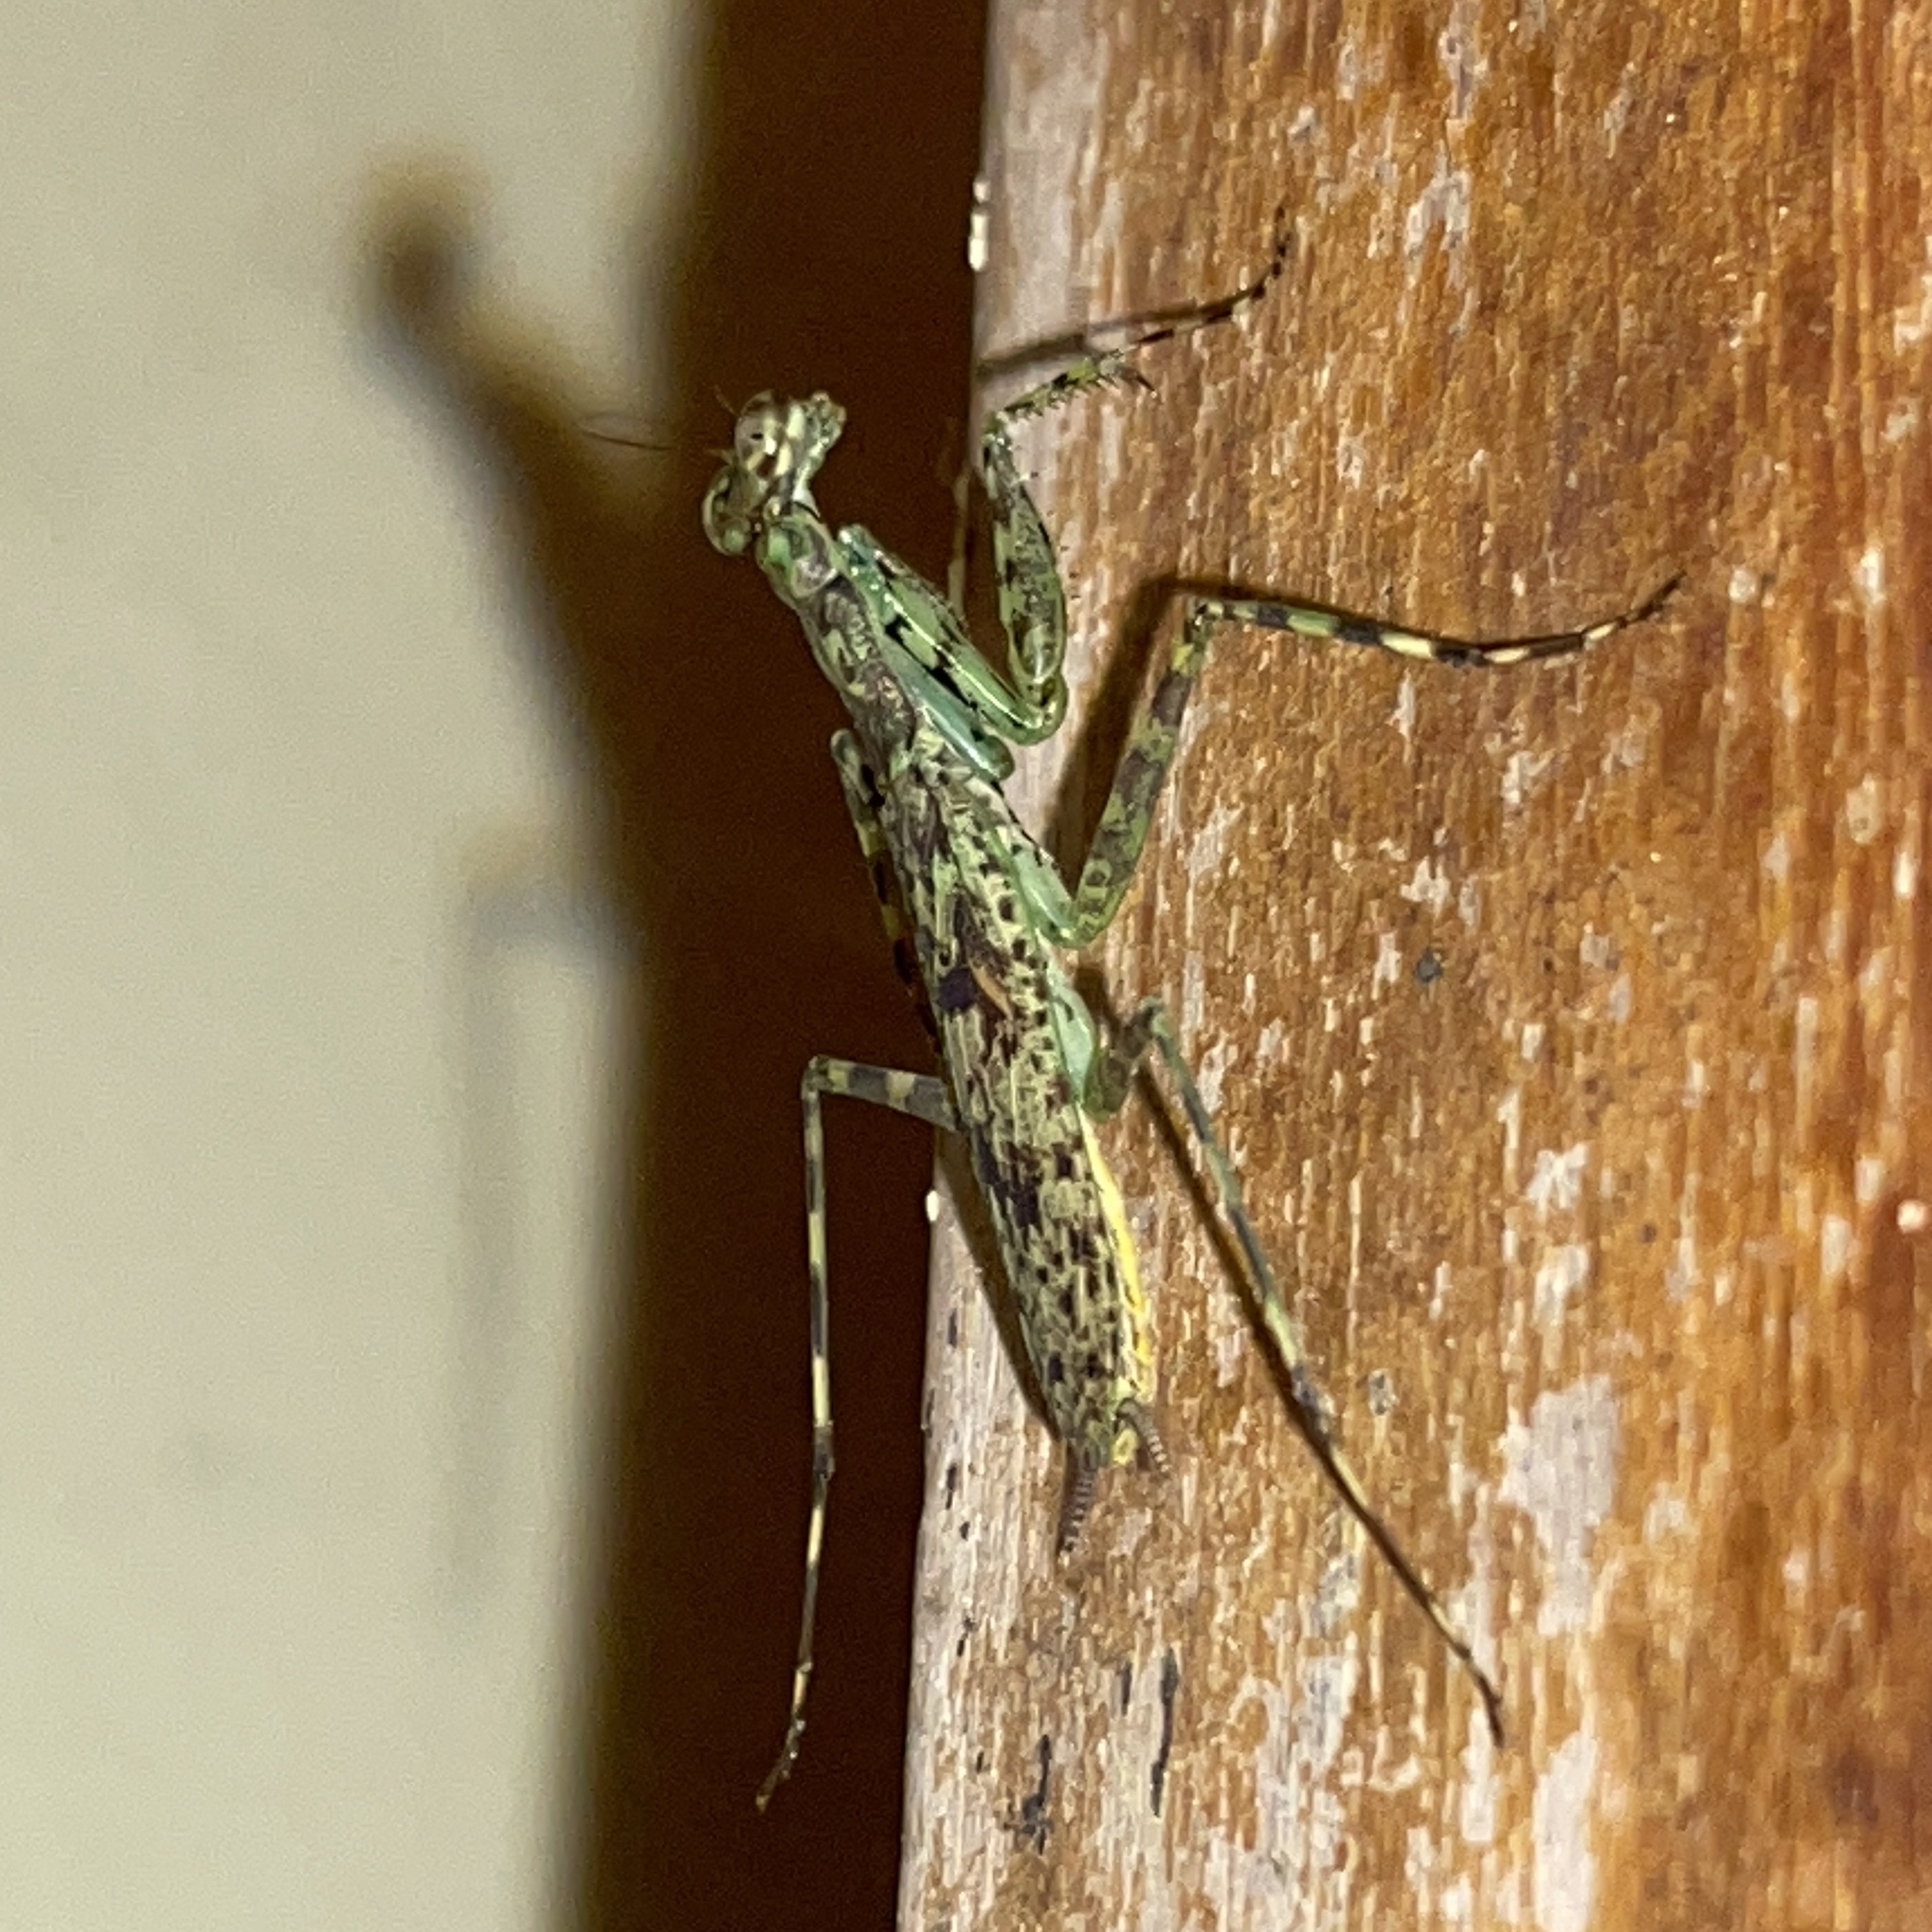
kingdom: Animalia
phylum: Arthropoda
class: Insecta
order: Mantodea
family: Liturgusidae
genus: Liturgusa
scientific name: Liturgusa trinidadensis
